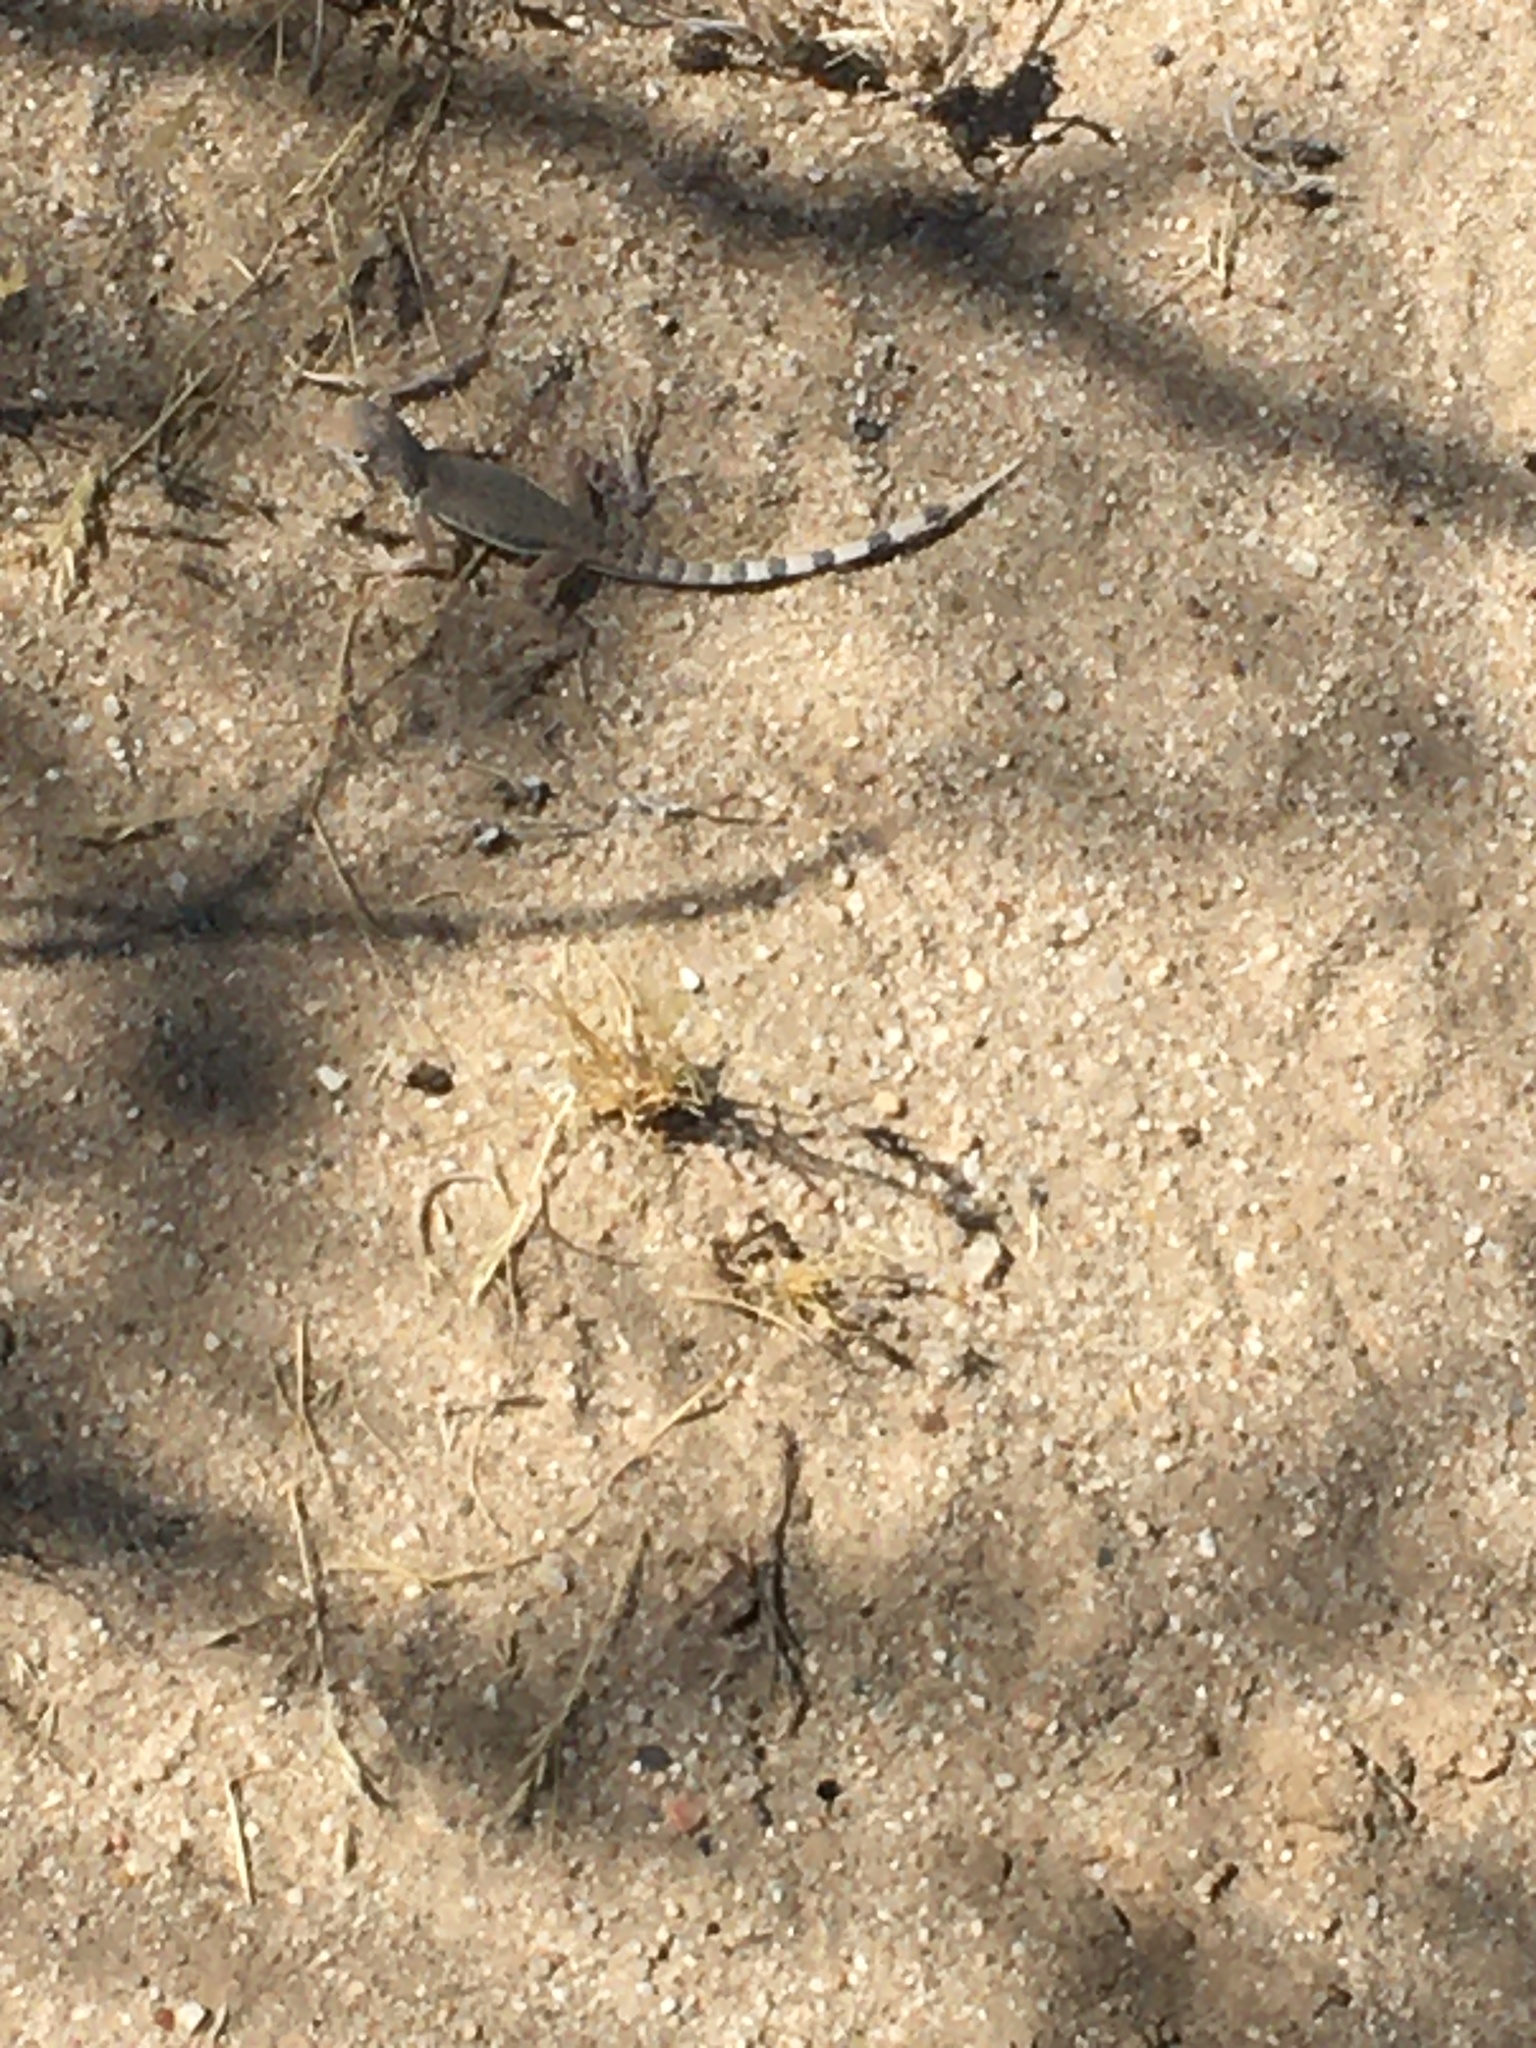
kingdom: Animalia
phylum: Chordata
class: Squamata
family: Phrynosomatidae
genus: Callisaurus
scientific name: Callisaurus draconoides
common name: Zebra-tailed lizard
